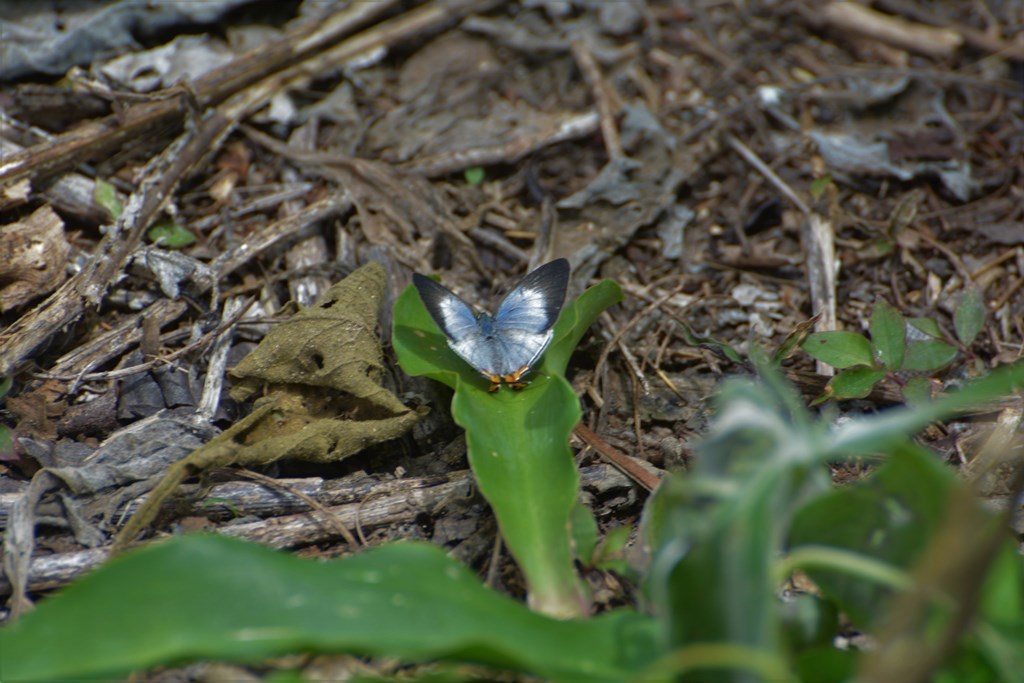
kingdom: Animalia
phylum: Arthropoda
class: Insecta
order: Lepidoptera
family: Lycaenidae
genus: Arawacus
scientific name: Arawacus sito
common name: Fine-lined hairstreak
